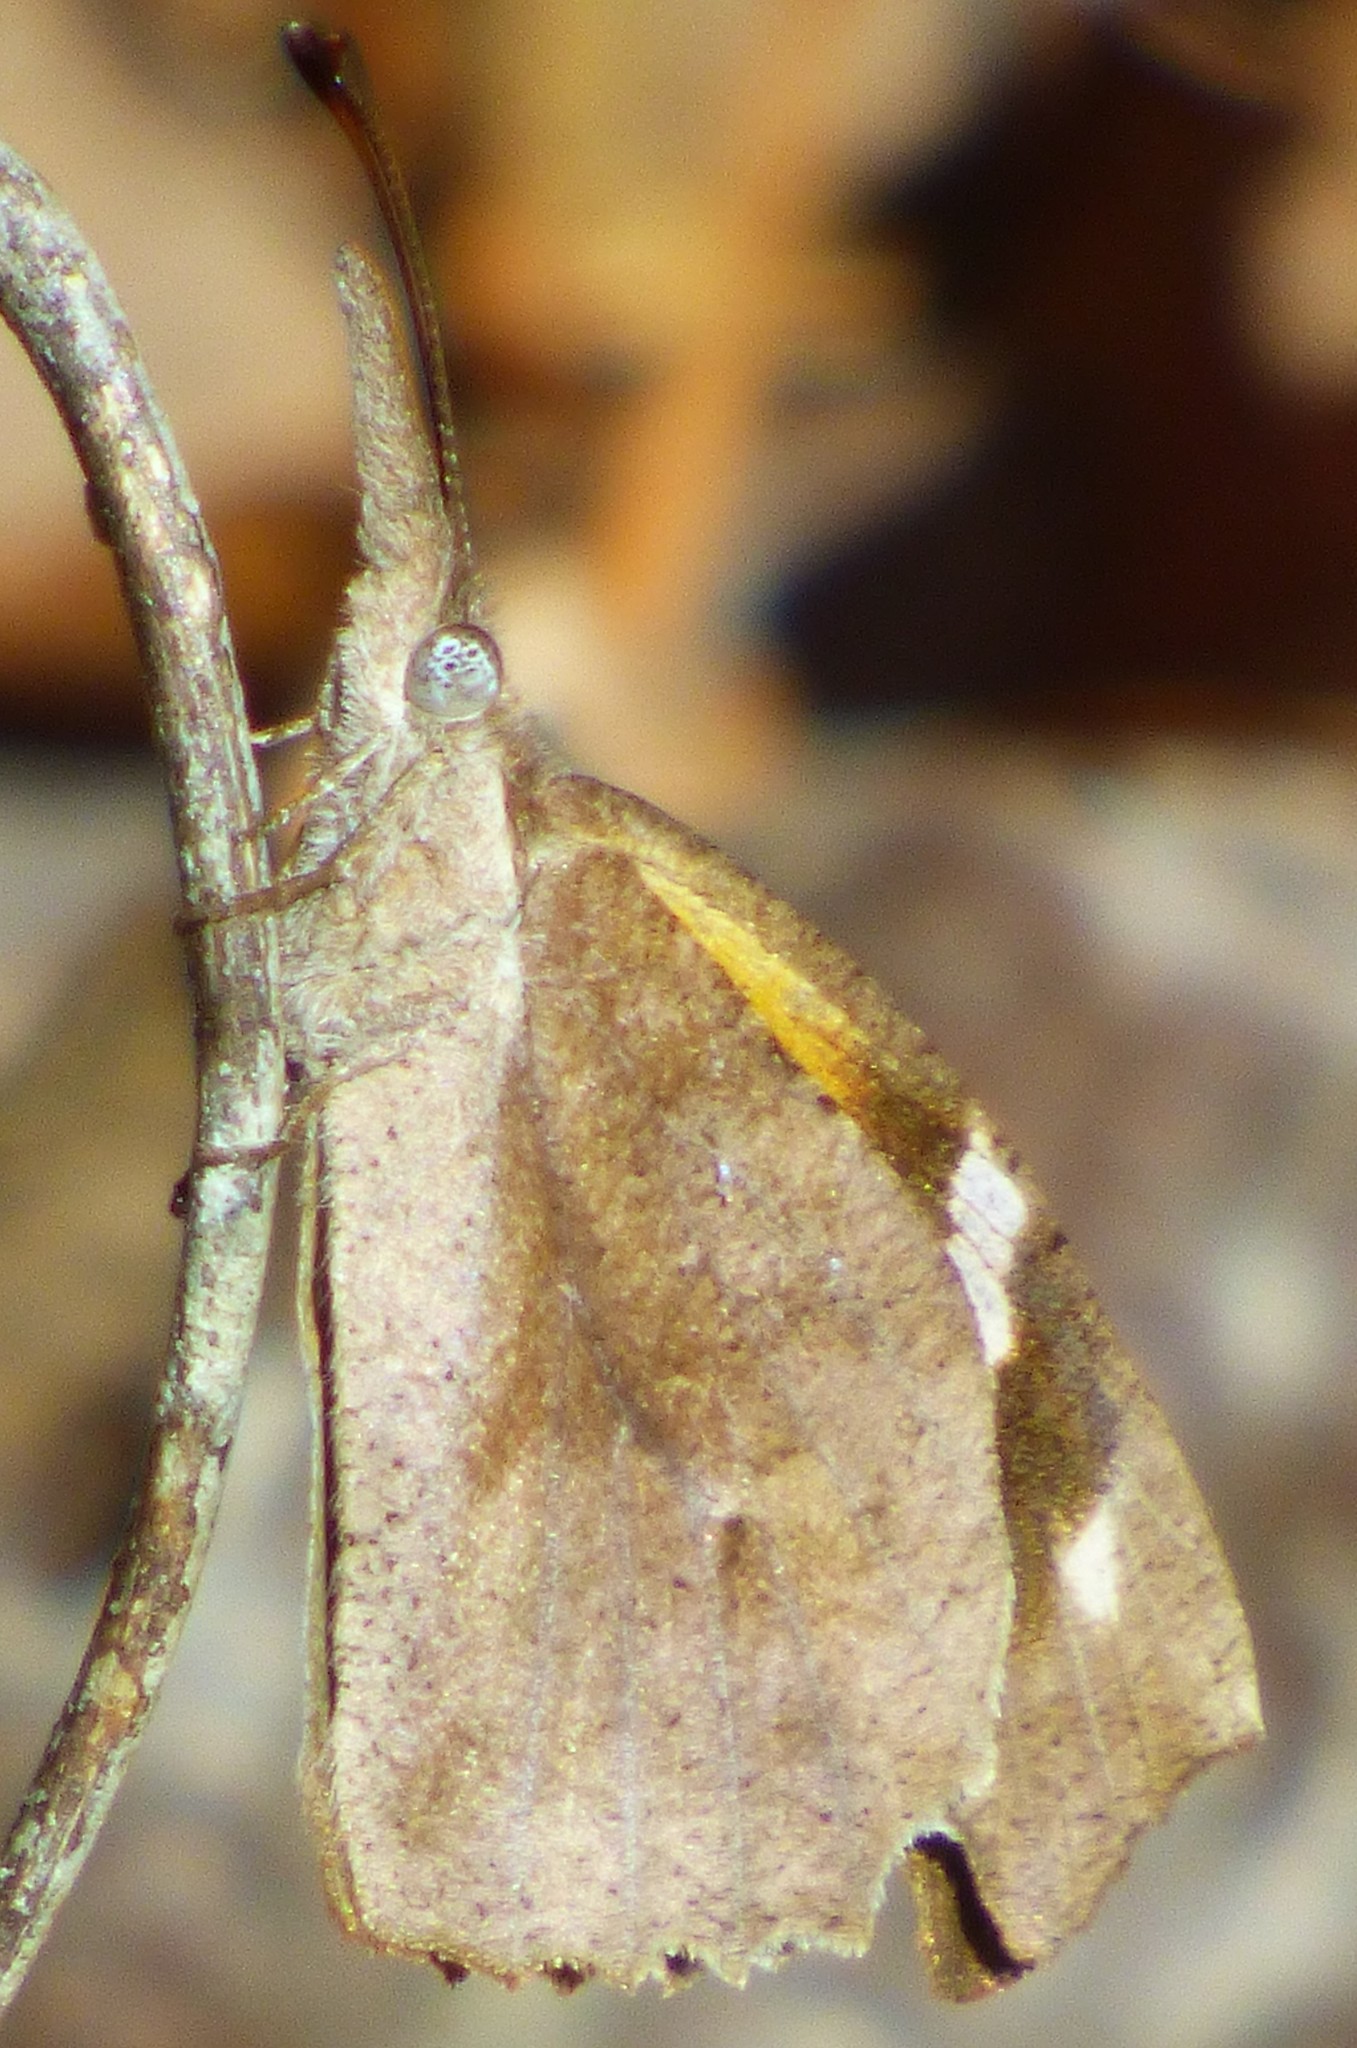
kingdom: Animalia
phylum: Arthropoda
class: Insecta
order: Lepidoptera
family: Nymphalidae
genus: Libytheana
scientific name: Libytheana carinenta
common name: American snout
